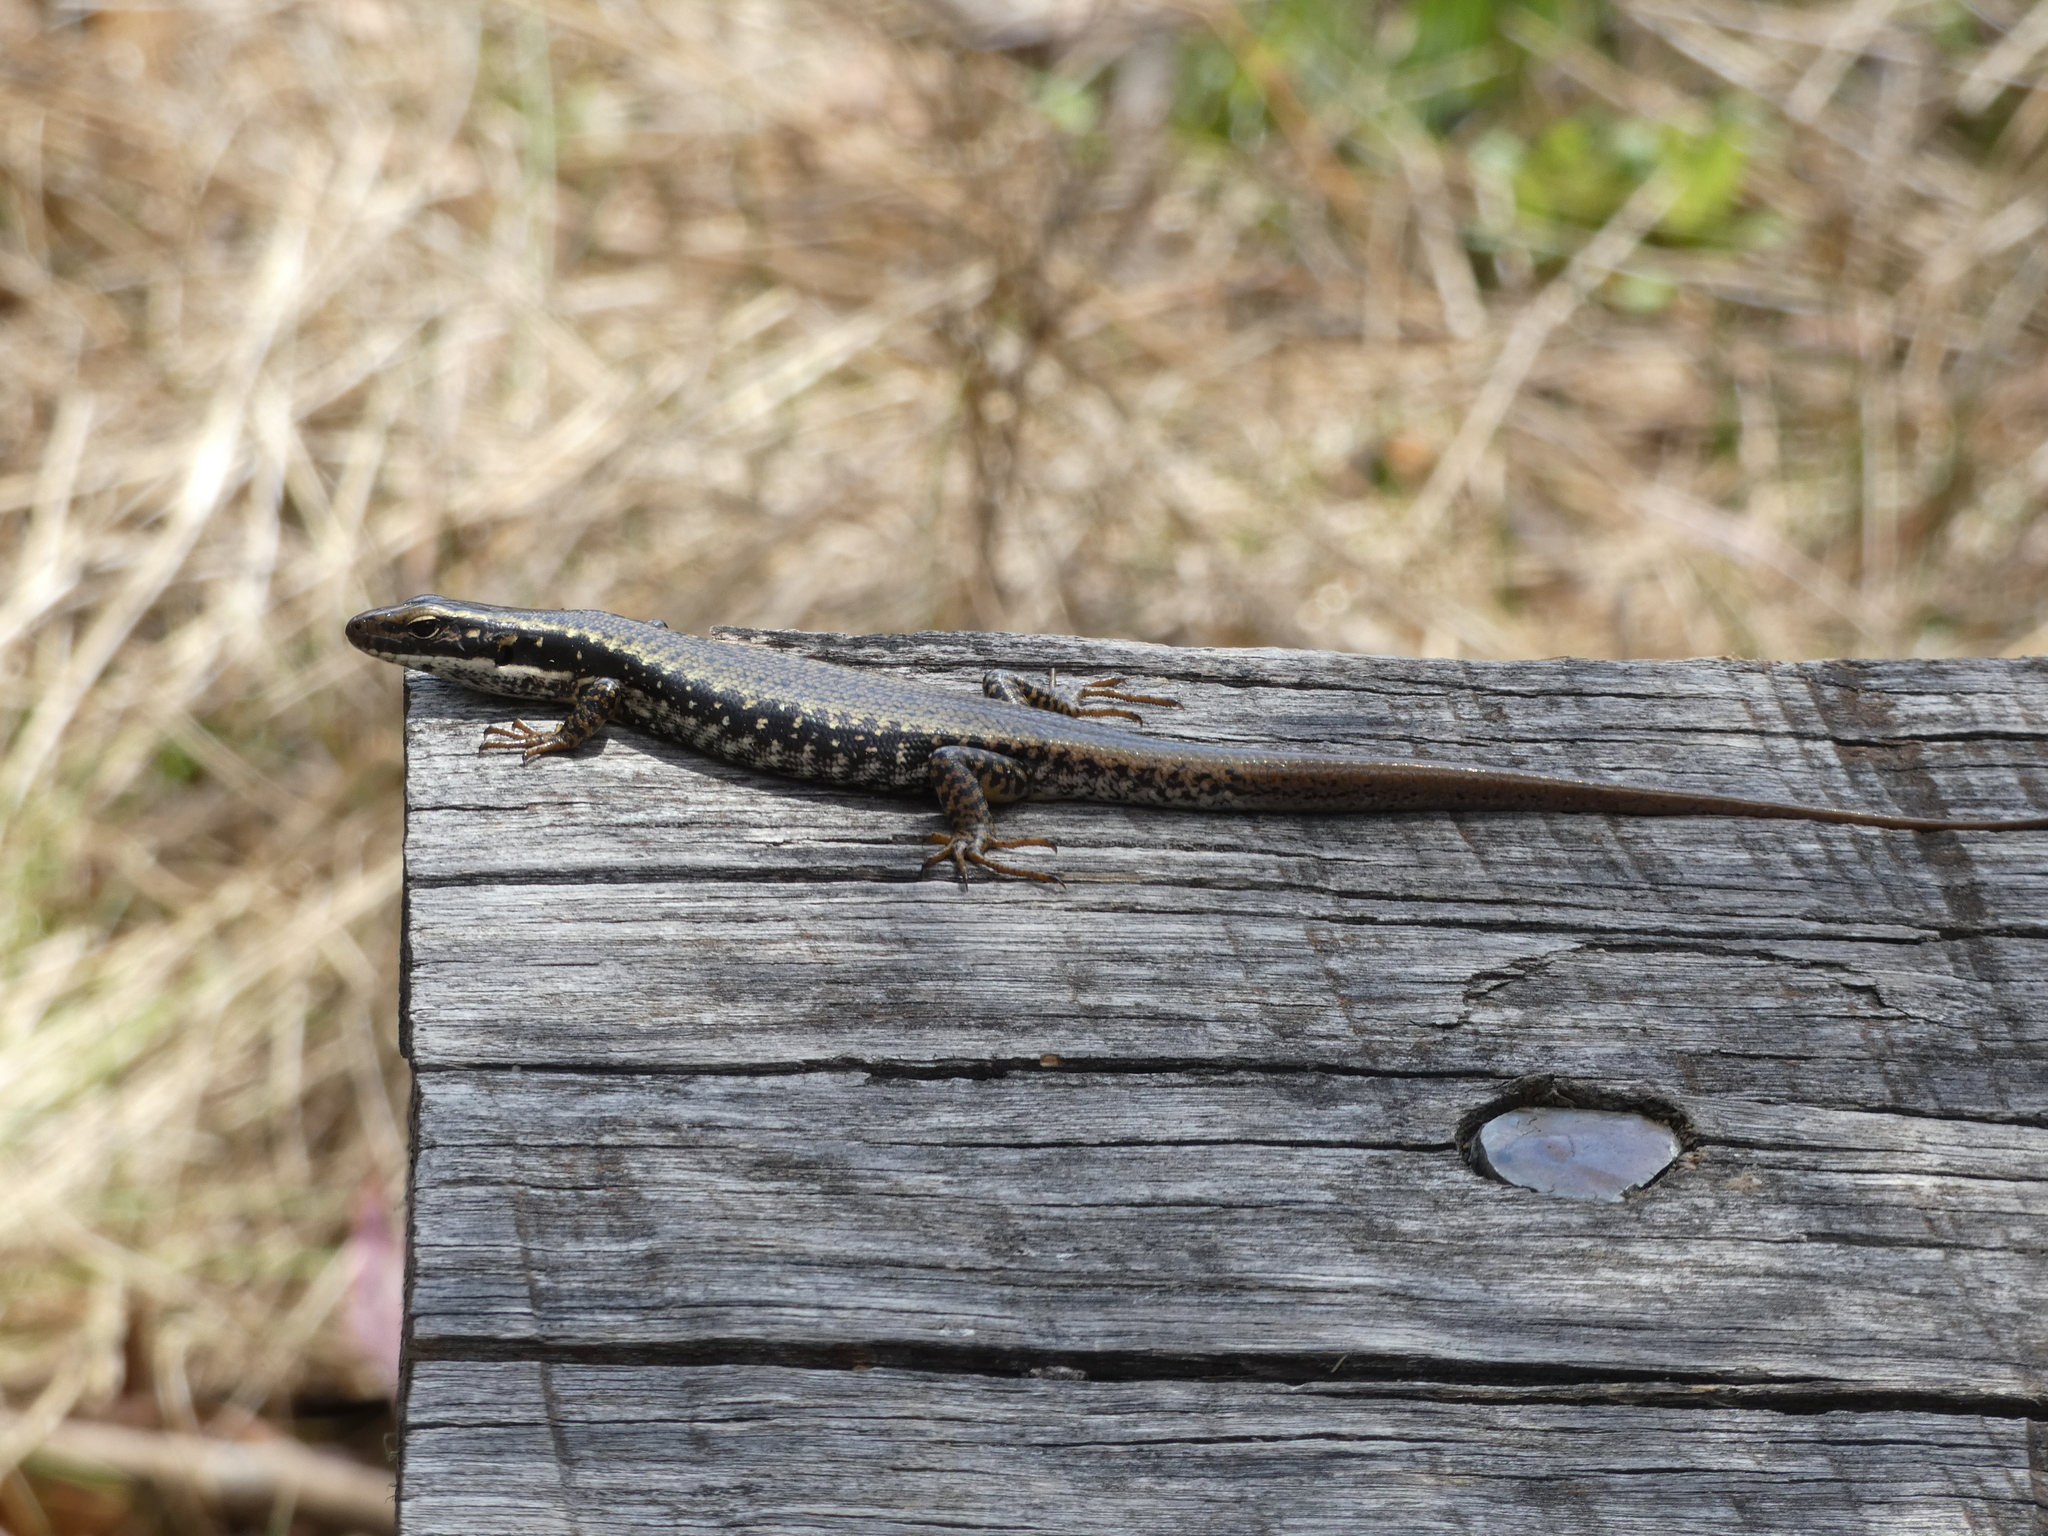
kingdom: Animalia
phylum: Chordata
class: Squamata
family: Scincidae
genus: Eulamprus
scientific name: Eulamprus heatwolei
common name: Warm-temperate water-skink
